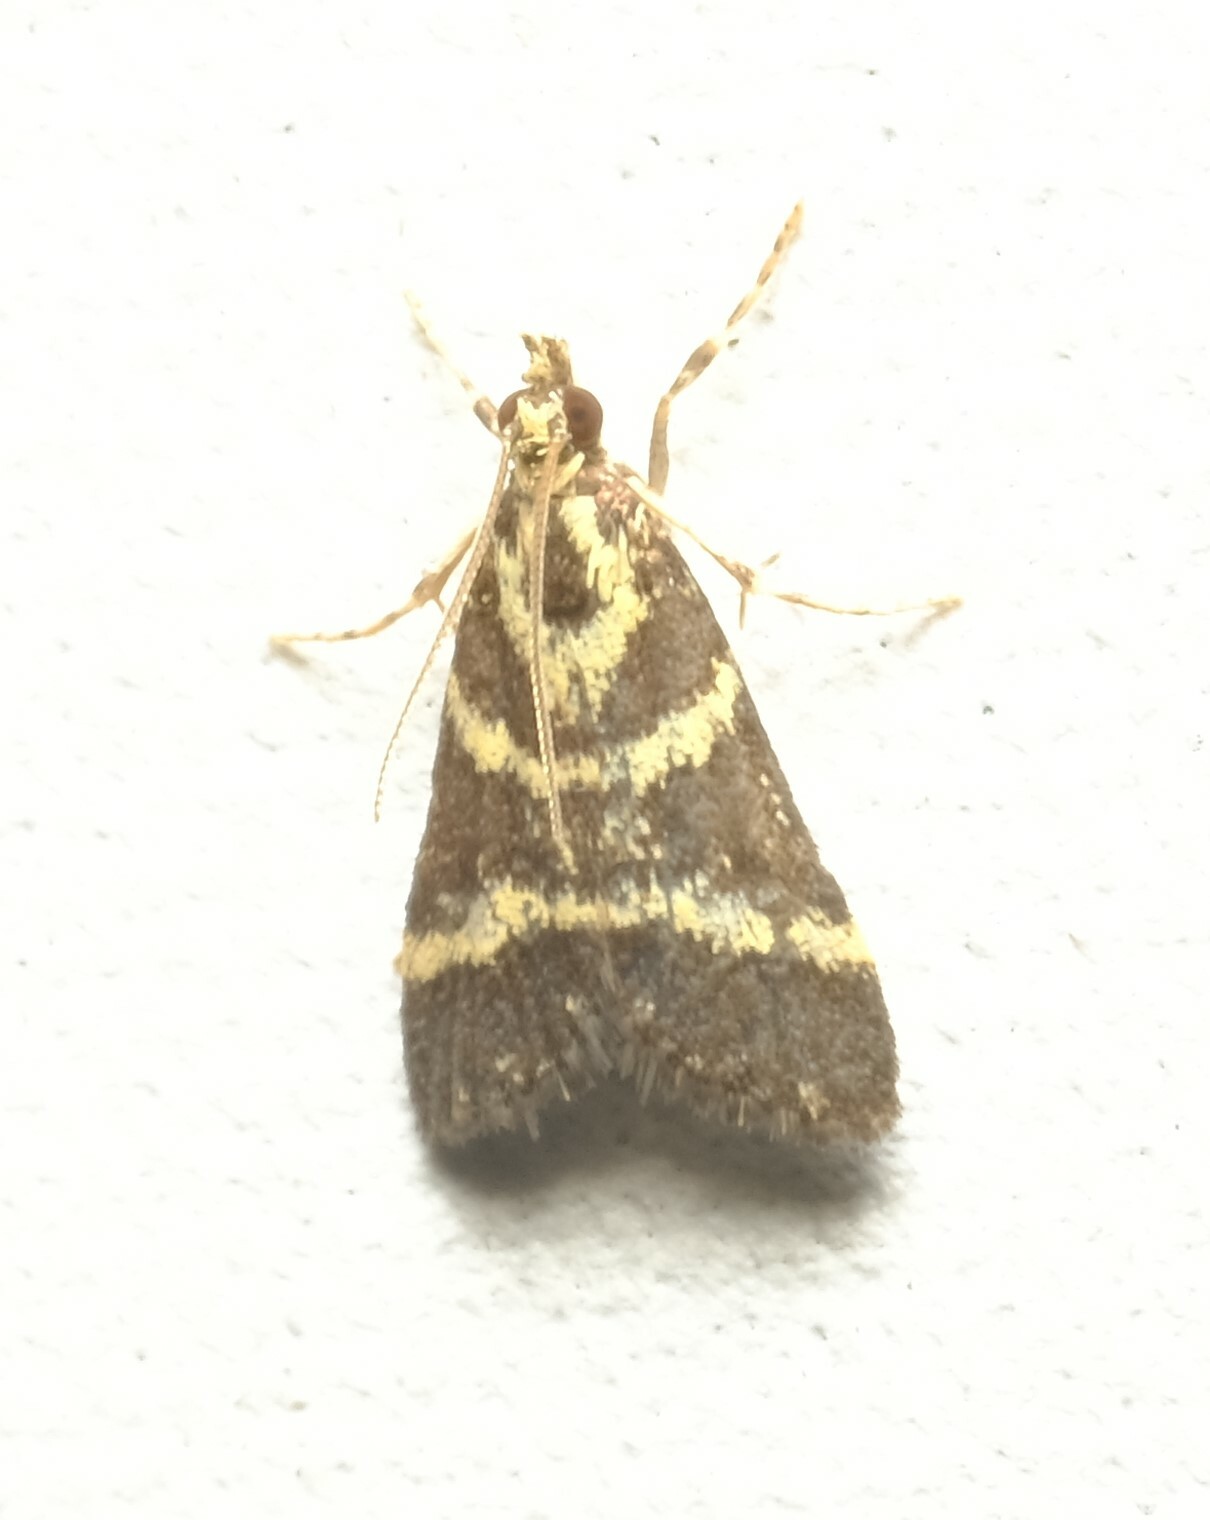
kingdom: Animalia
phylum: Arthropoda
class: Insecta
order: Lepidoptera
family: Crambidae
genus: Scoparia
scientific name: Scoparia spelaea
